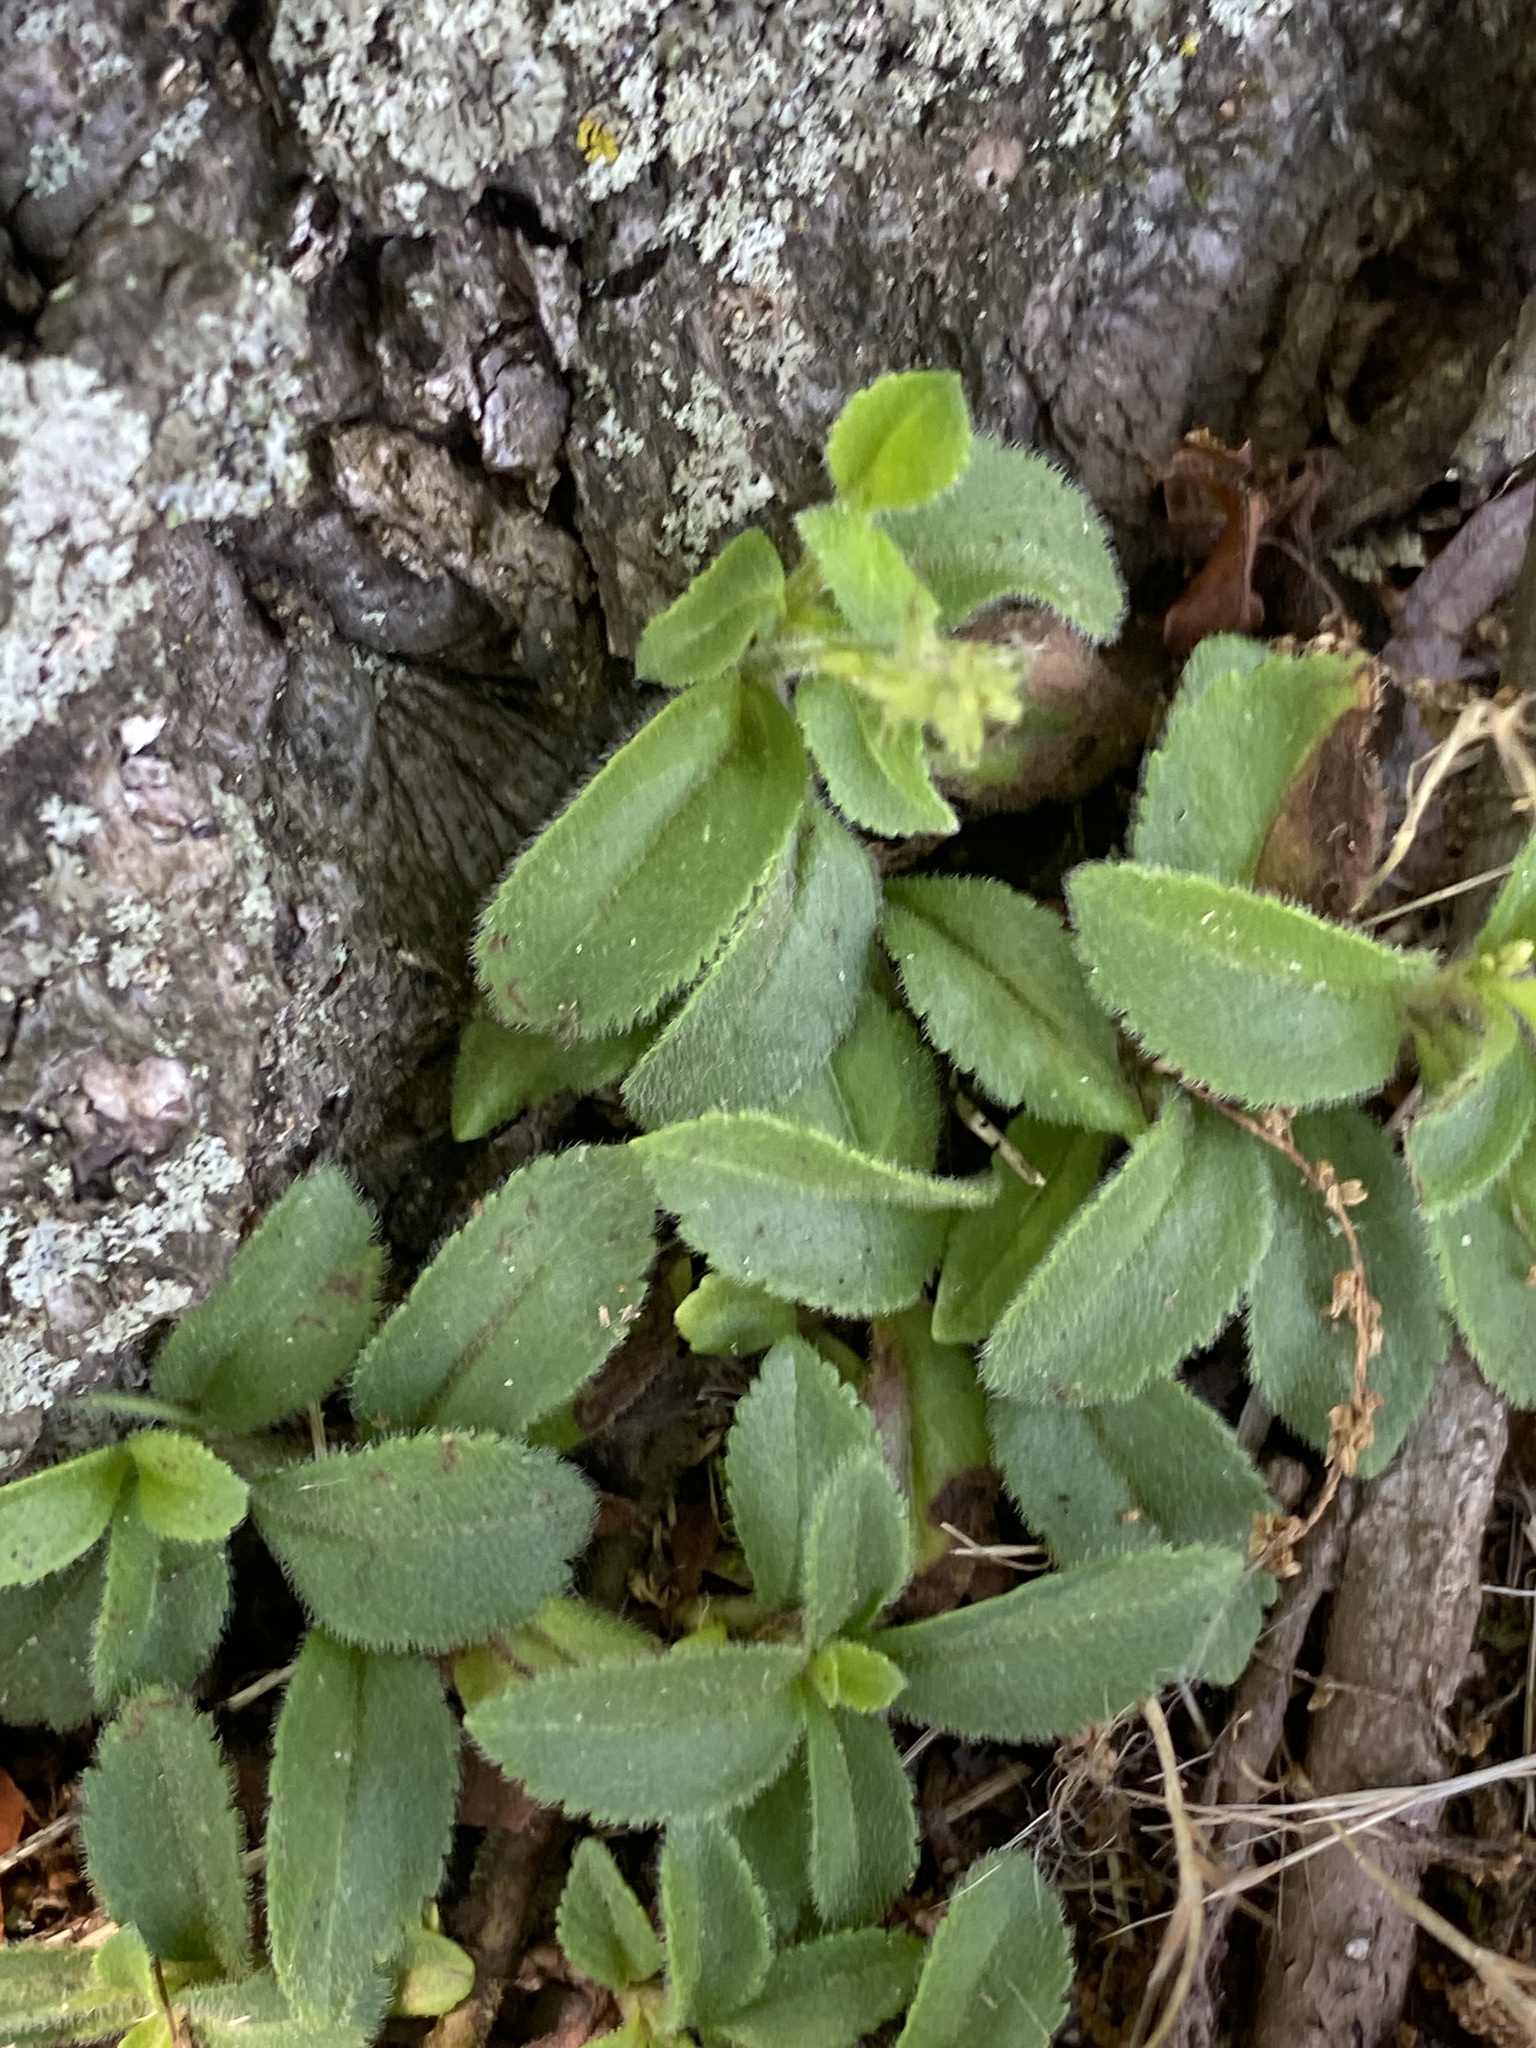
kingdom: Plantae
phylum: Tracheophyta
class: Magnoliopsida
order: Lamiales
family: Plantaginaceae
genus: Veronica
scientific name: Veronica officinalis
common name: Common speedwell
